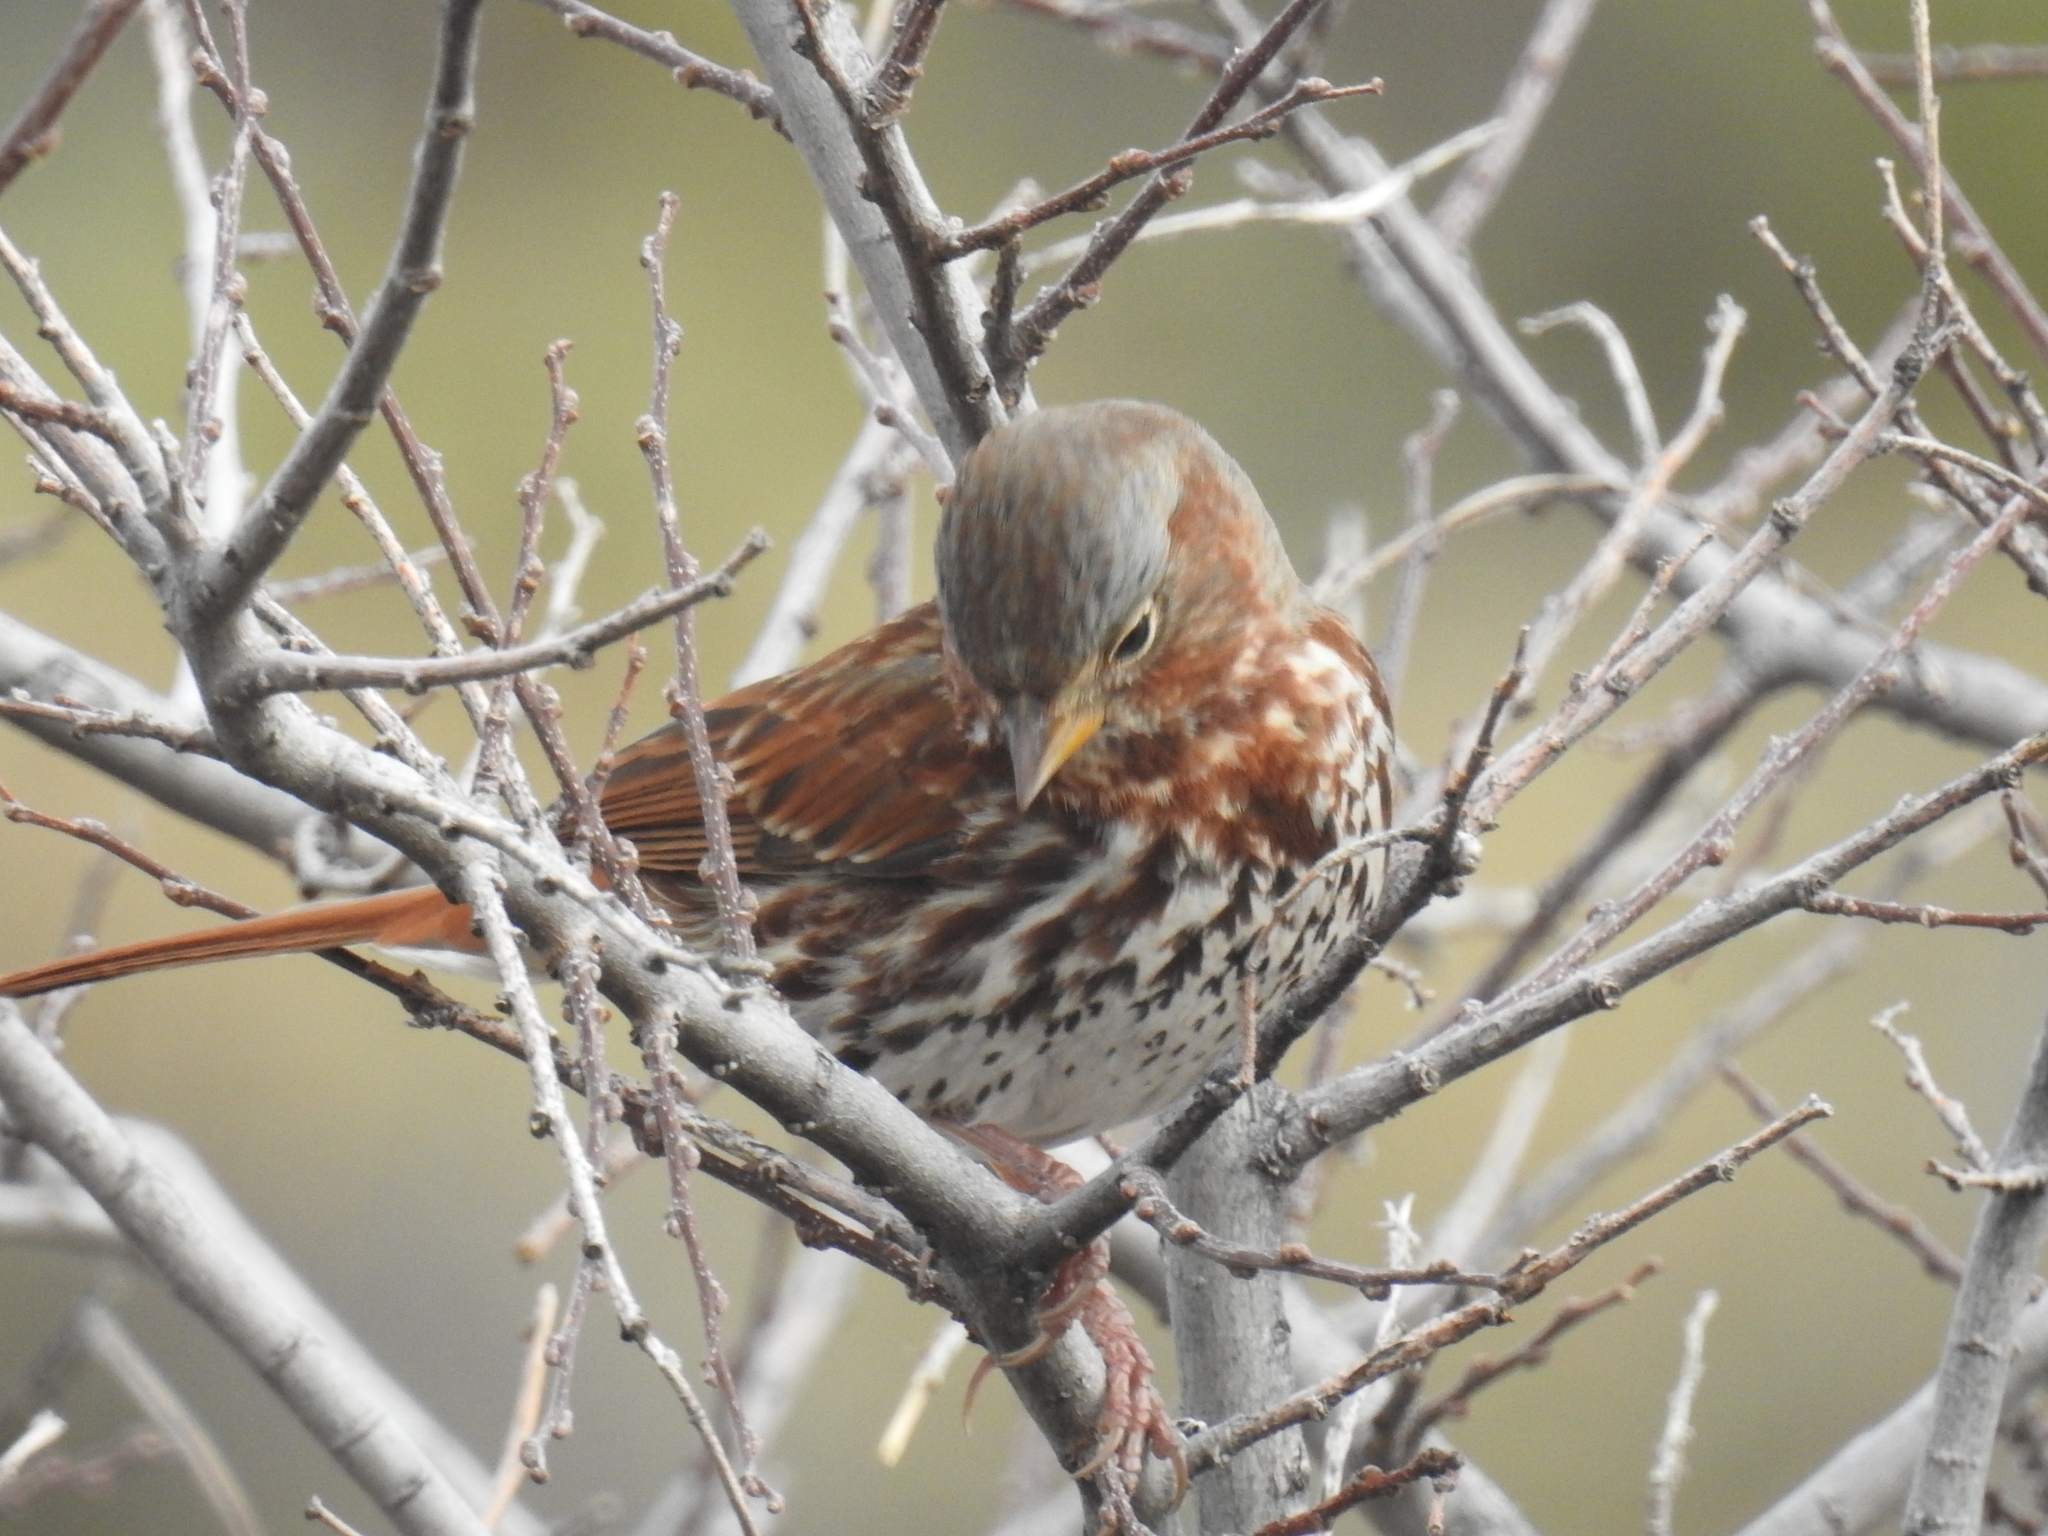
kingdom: Animalia
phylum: Chordata
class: Aves
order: Passeriformes
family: Passerellidae
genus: Passerella
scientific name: Passerella iliaca
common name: Fox sparrow
